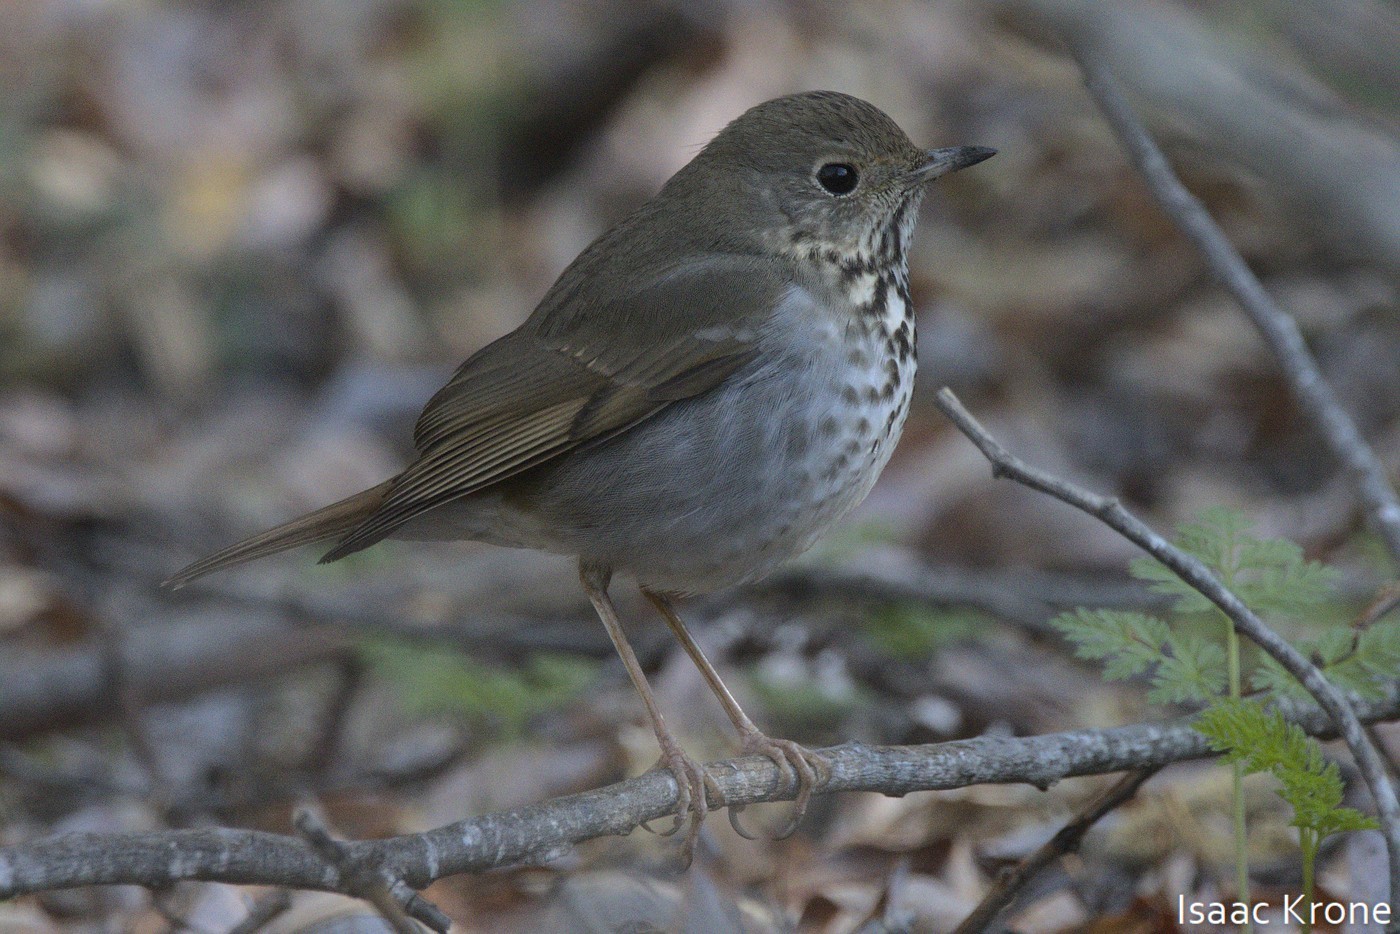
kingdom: Animalia
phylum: Chordata
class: Aves
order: Passeriformes
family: Turdidae
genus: Catharus
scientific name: Catharus guttatus
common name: Hermit thrush
